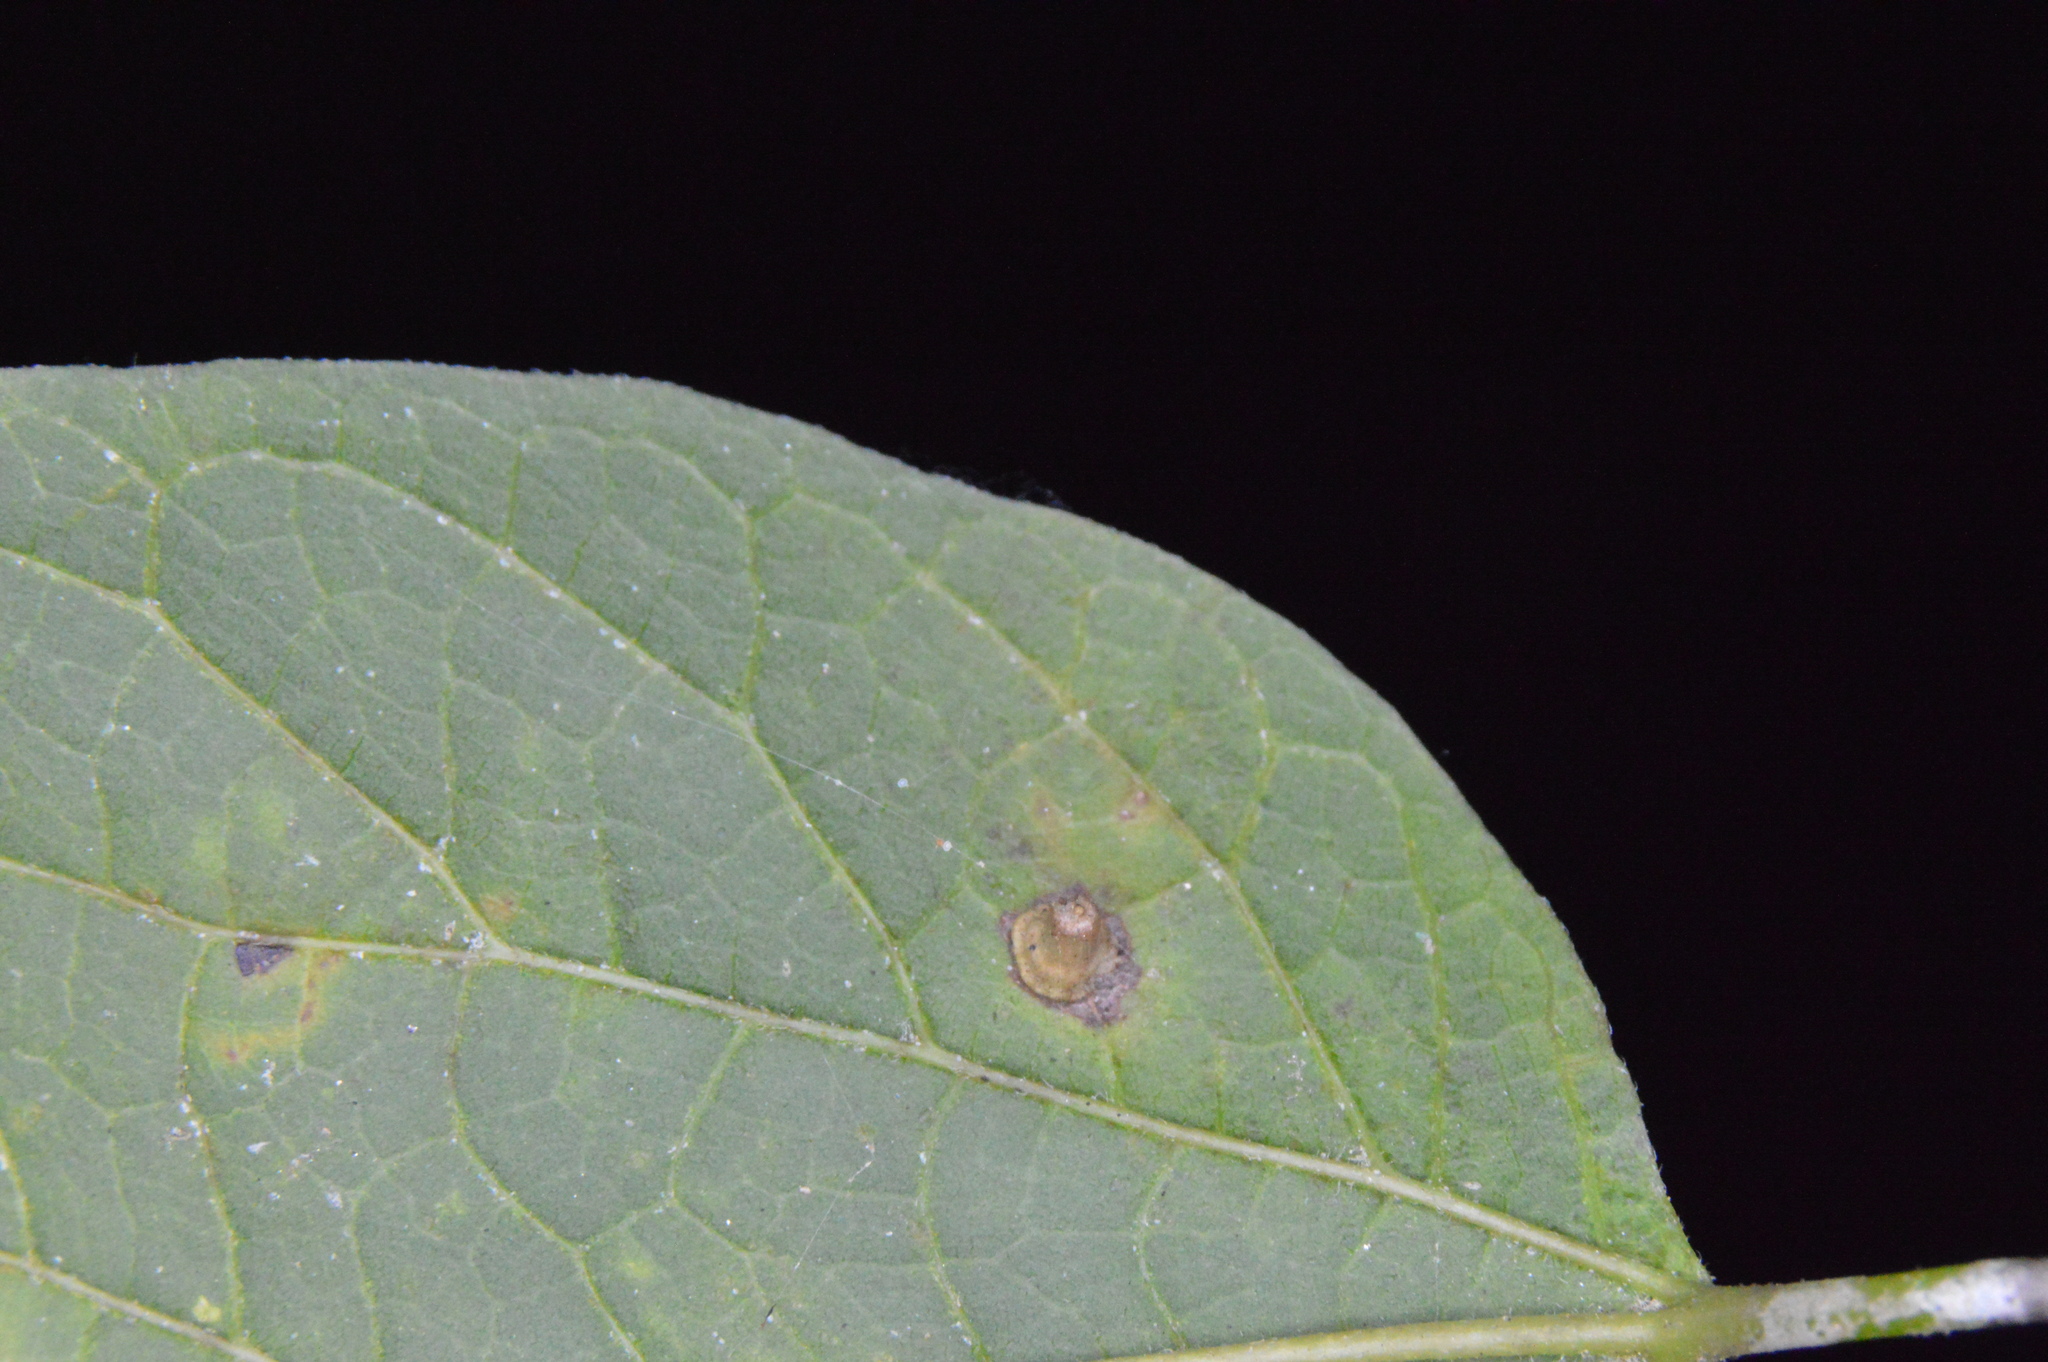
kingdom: Animalia
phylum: Arthropoda
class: Insecta
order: Diptera
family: Cecidomyiidae
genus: Celticecis
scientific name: Celticecis aciculata
